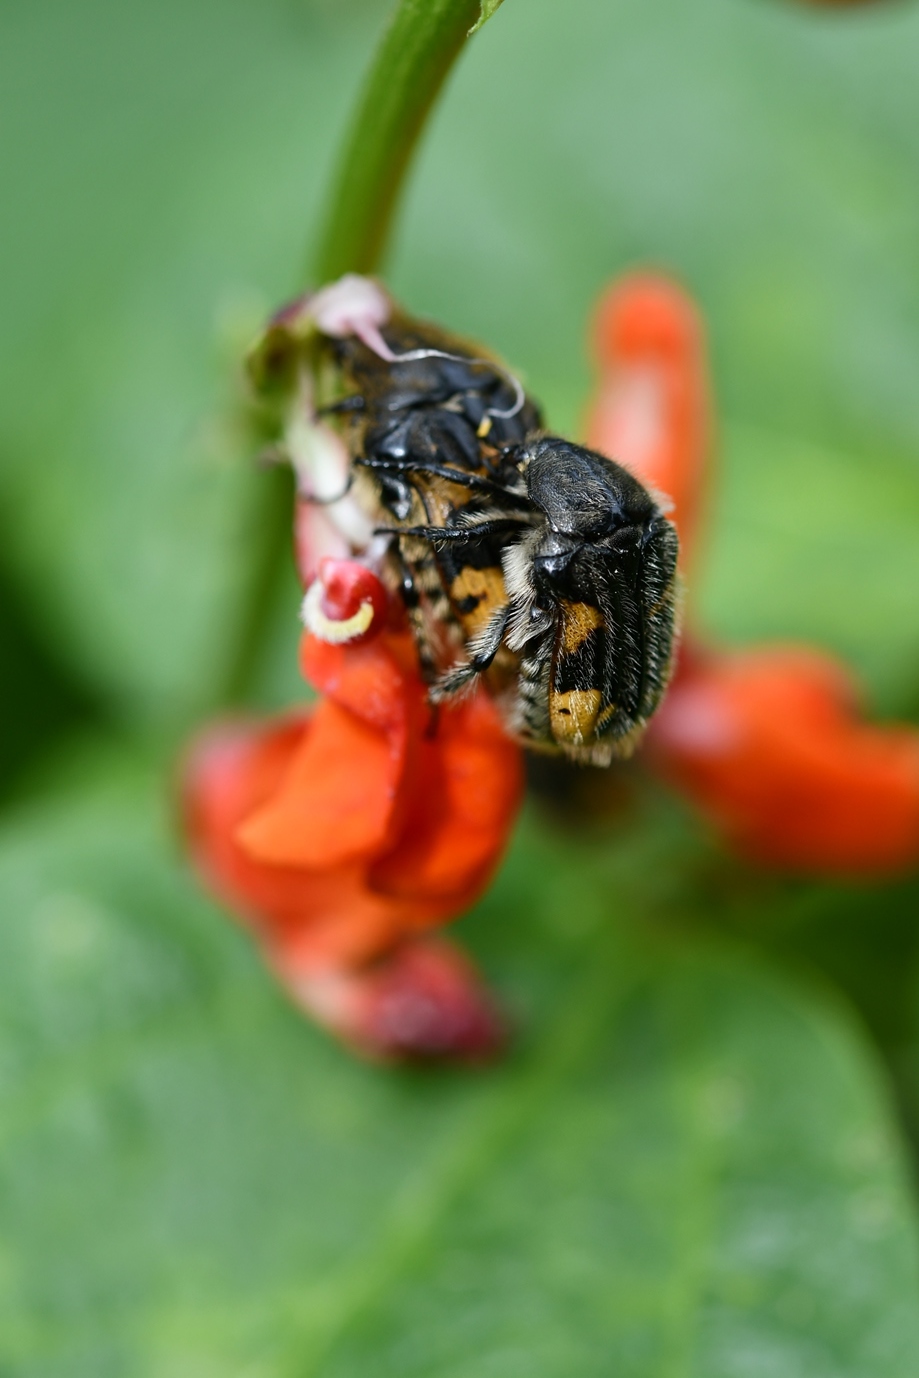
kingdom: Animalia
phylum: Arthropoda
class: Insecta
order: Coleoptera
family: Scarabaeidae
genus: Euphoria
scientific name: Euphoria basalis
